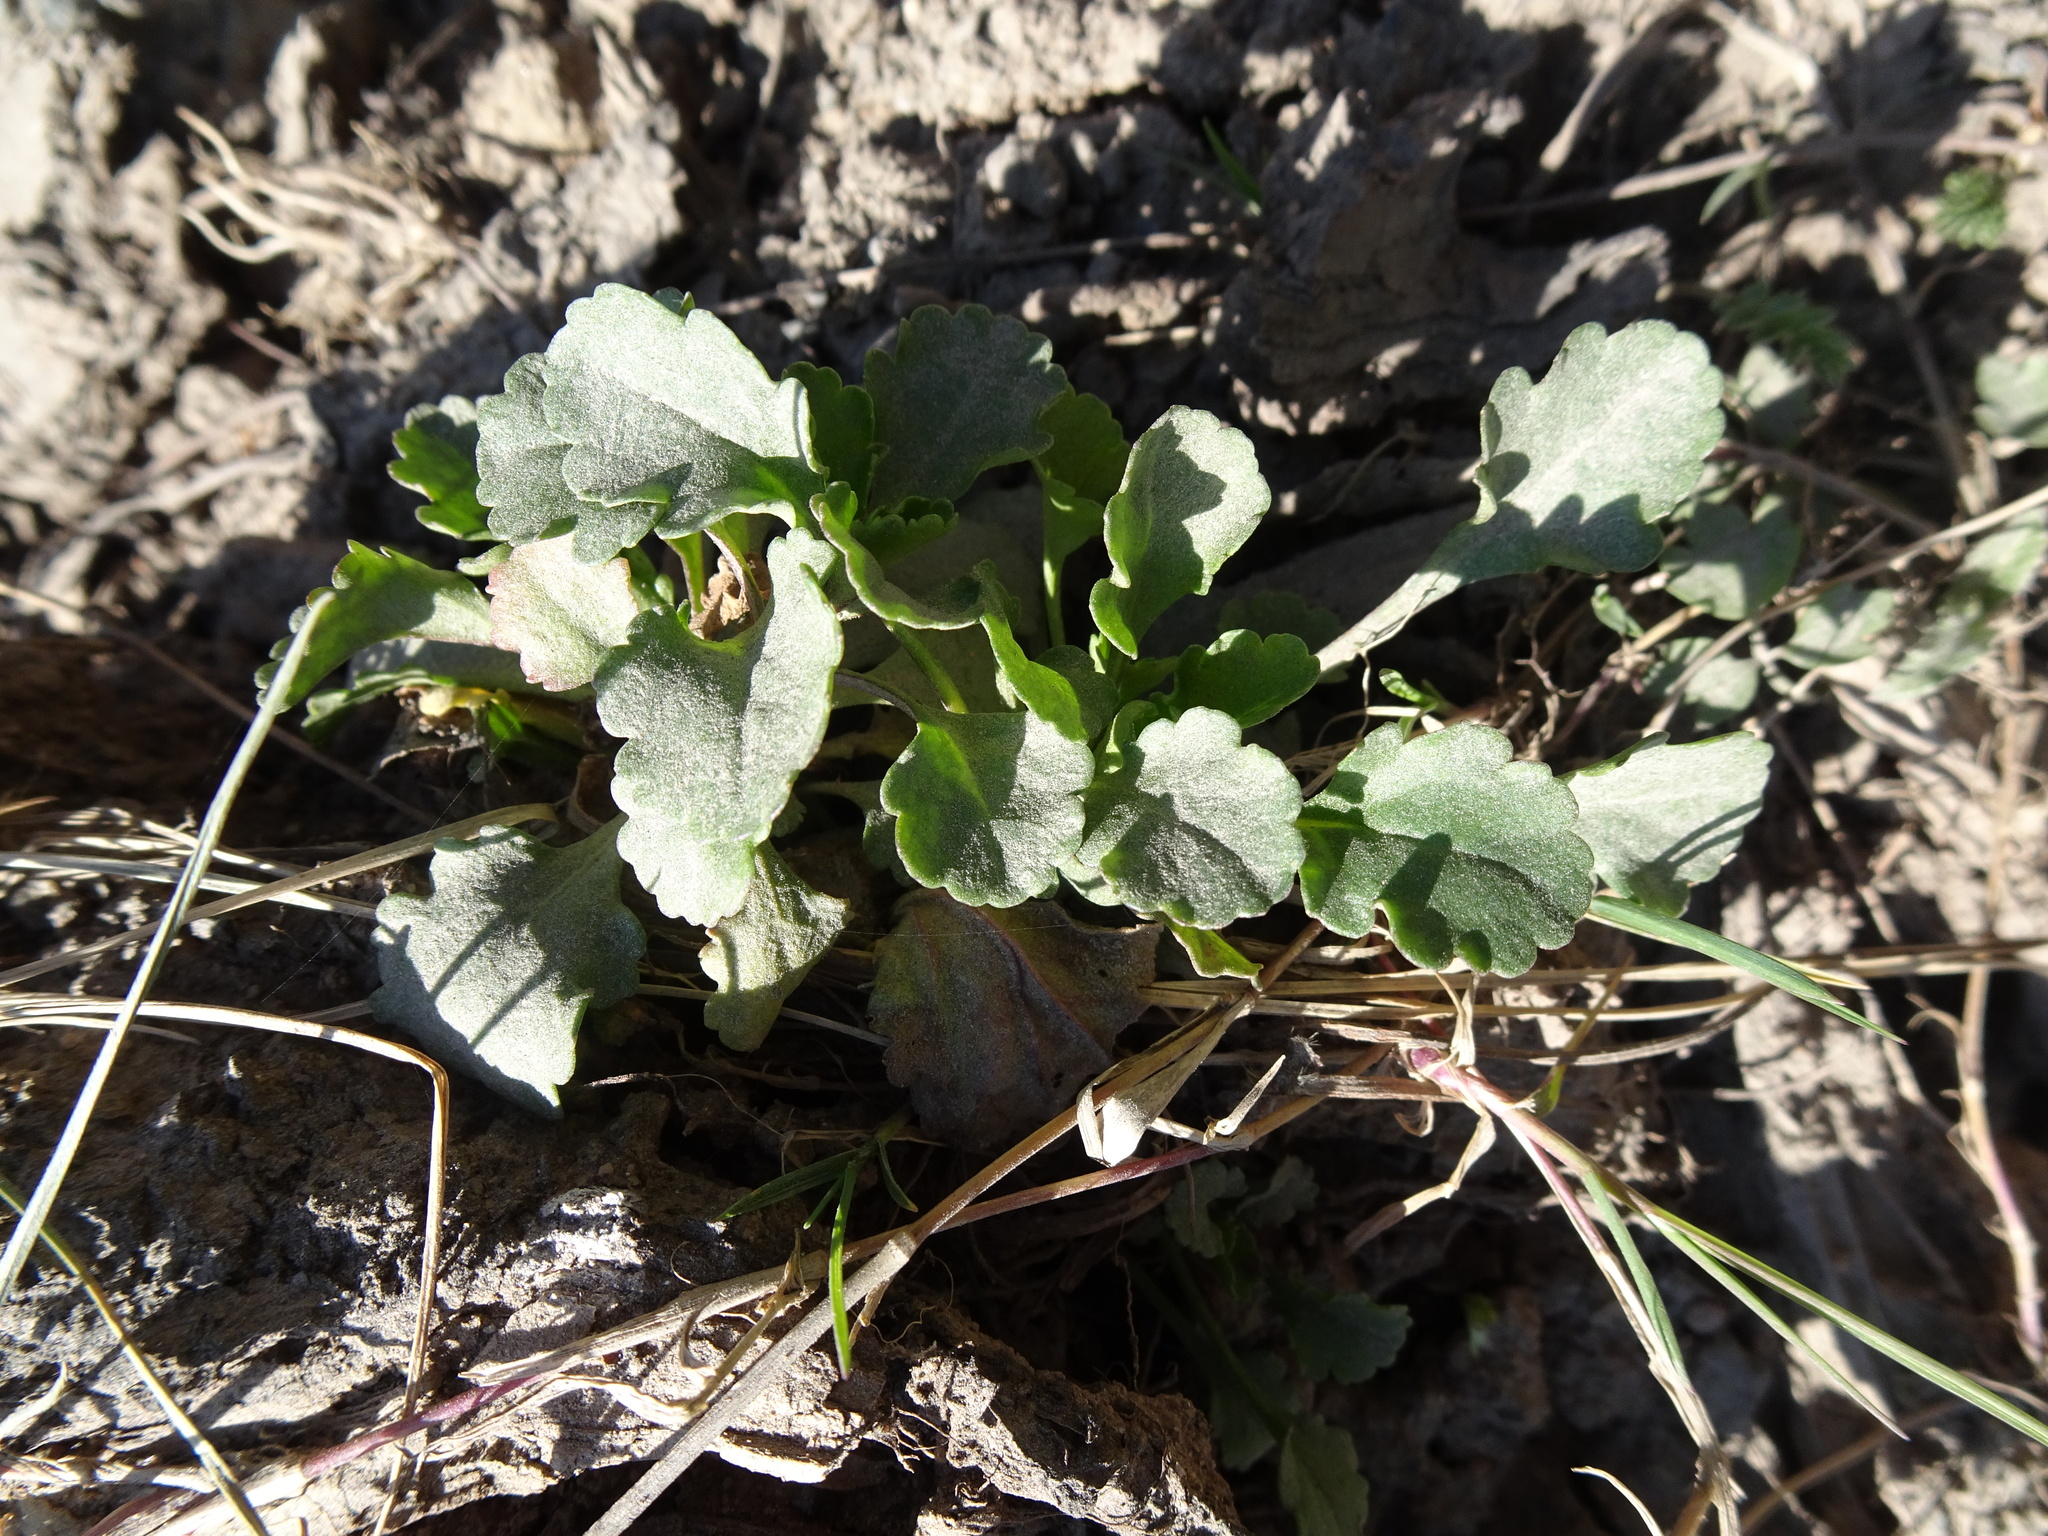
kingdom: Plantae
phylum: Tracheophyta
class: Magnoliopsida
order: Asterales
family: Asteraceae
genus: Leucanthemum
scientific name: Leucanthemum vulgare
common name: Oxeye daisy
